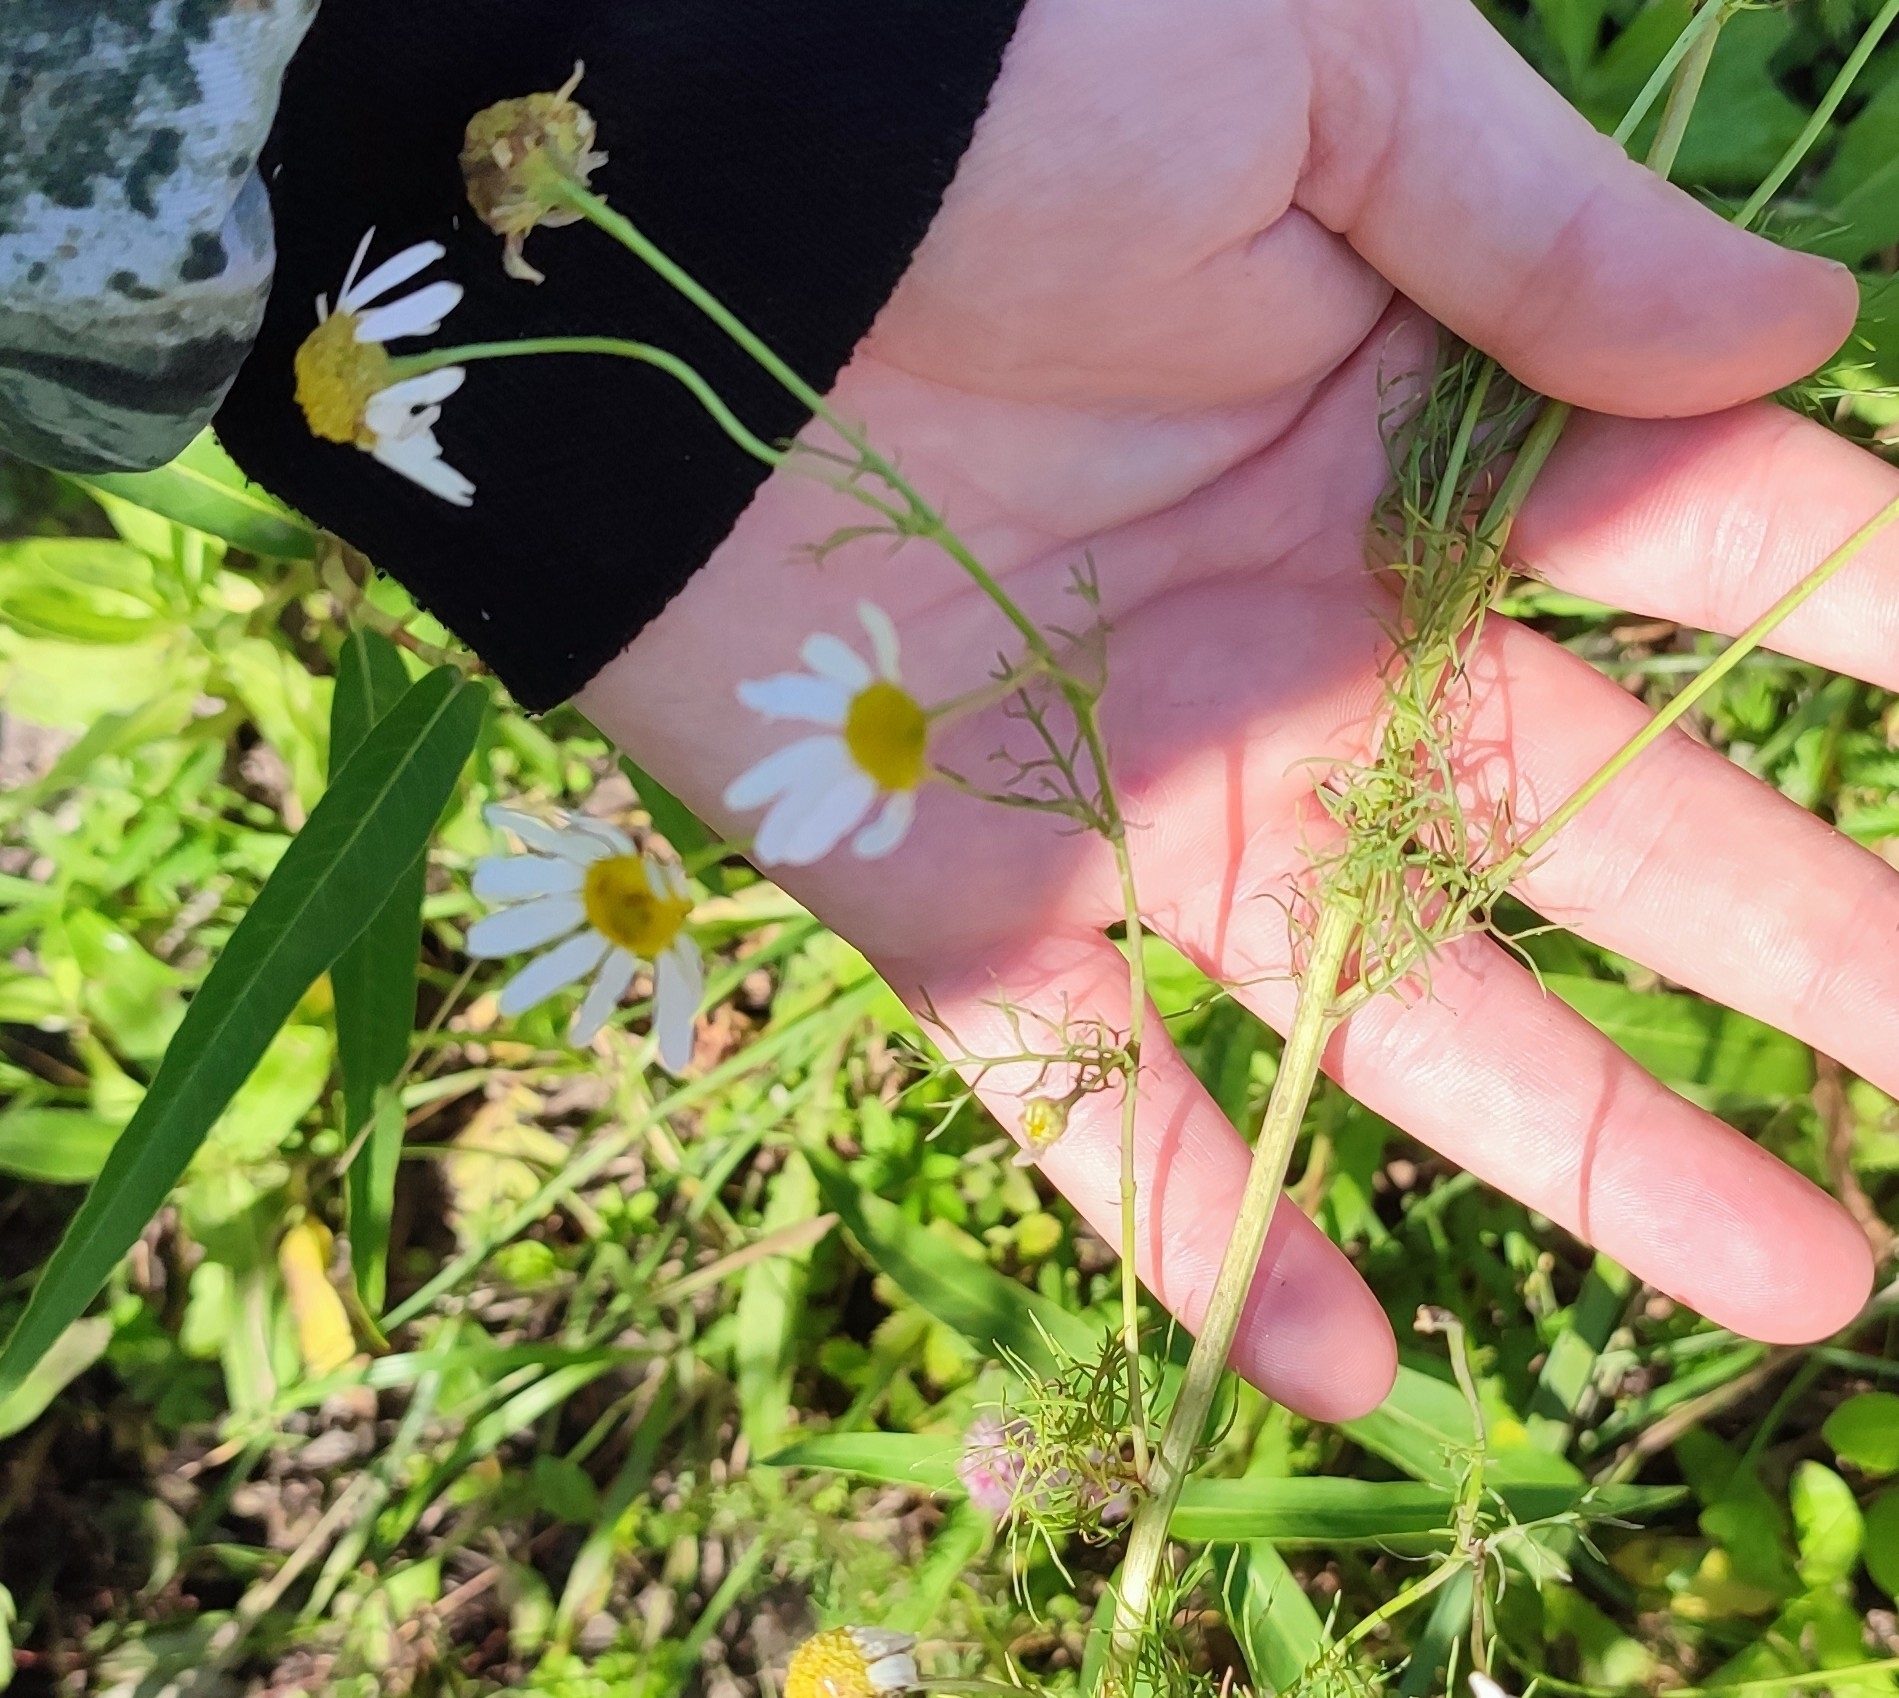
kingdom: Plantae
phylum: Tracheophyta
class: Magnoliopsida
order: Asterales
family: Asteraceae
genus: Tripleurospermum
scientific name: Tripleurospermum inodorum
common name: Scentless mayweed
